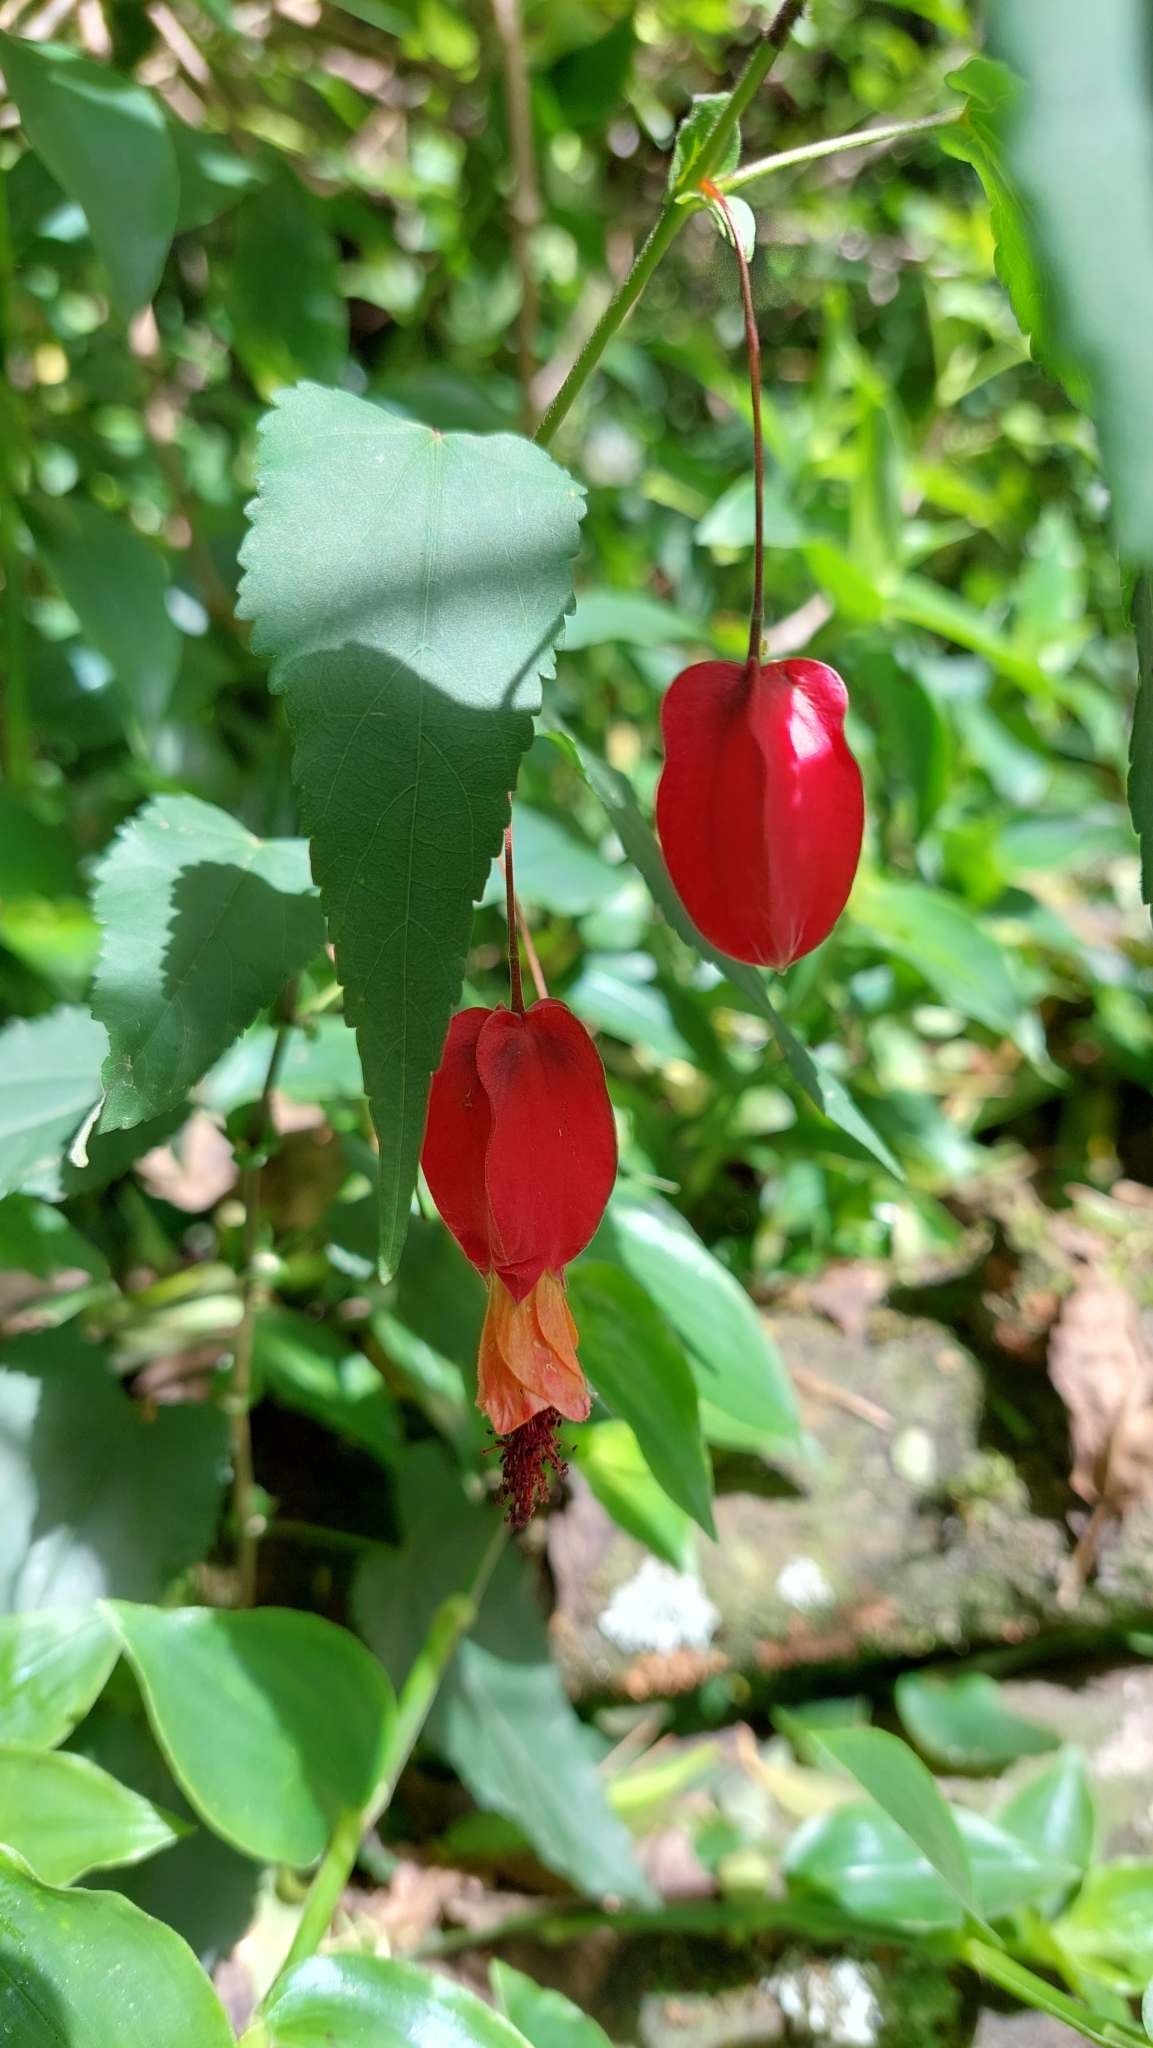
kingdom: Plantae
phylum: Tracheophyta
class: Magnoliopsida
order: Malvales
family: Malvaceae
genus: Callianthe
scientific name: Callianthe megapotamica
